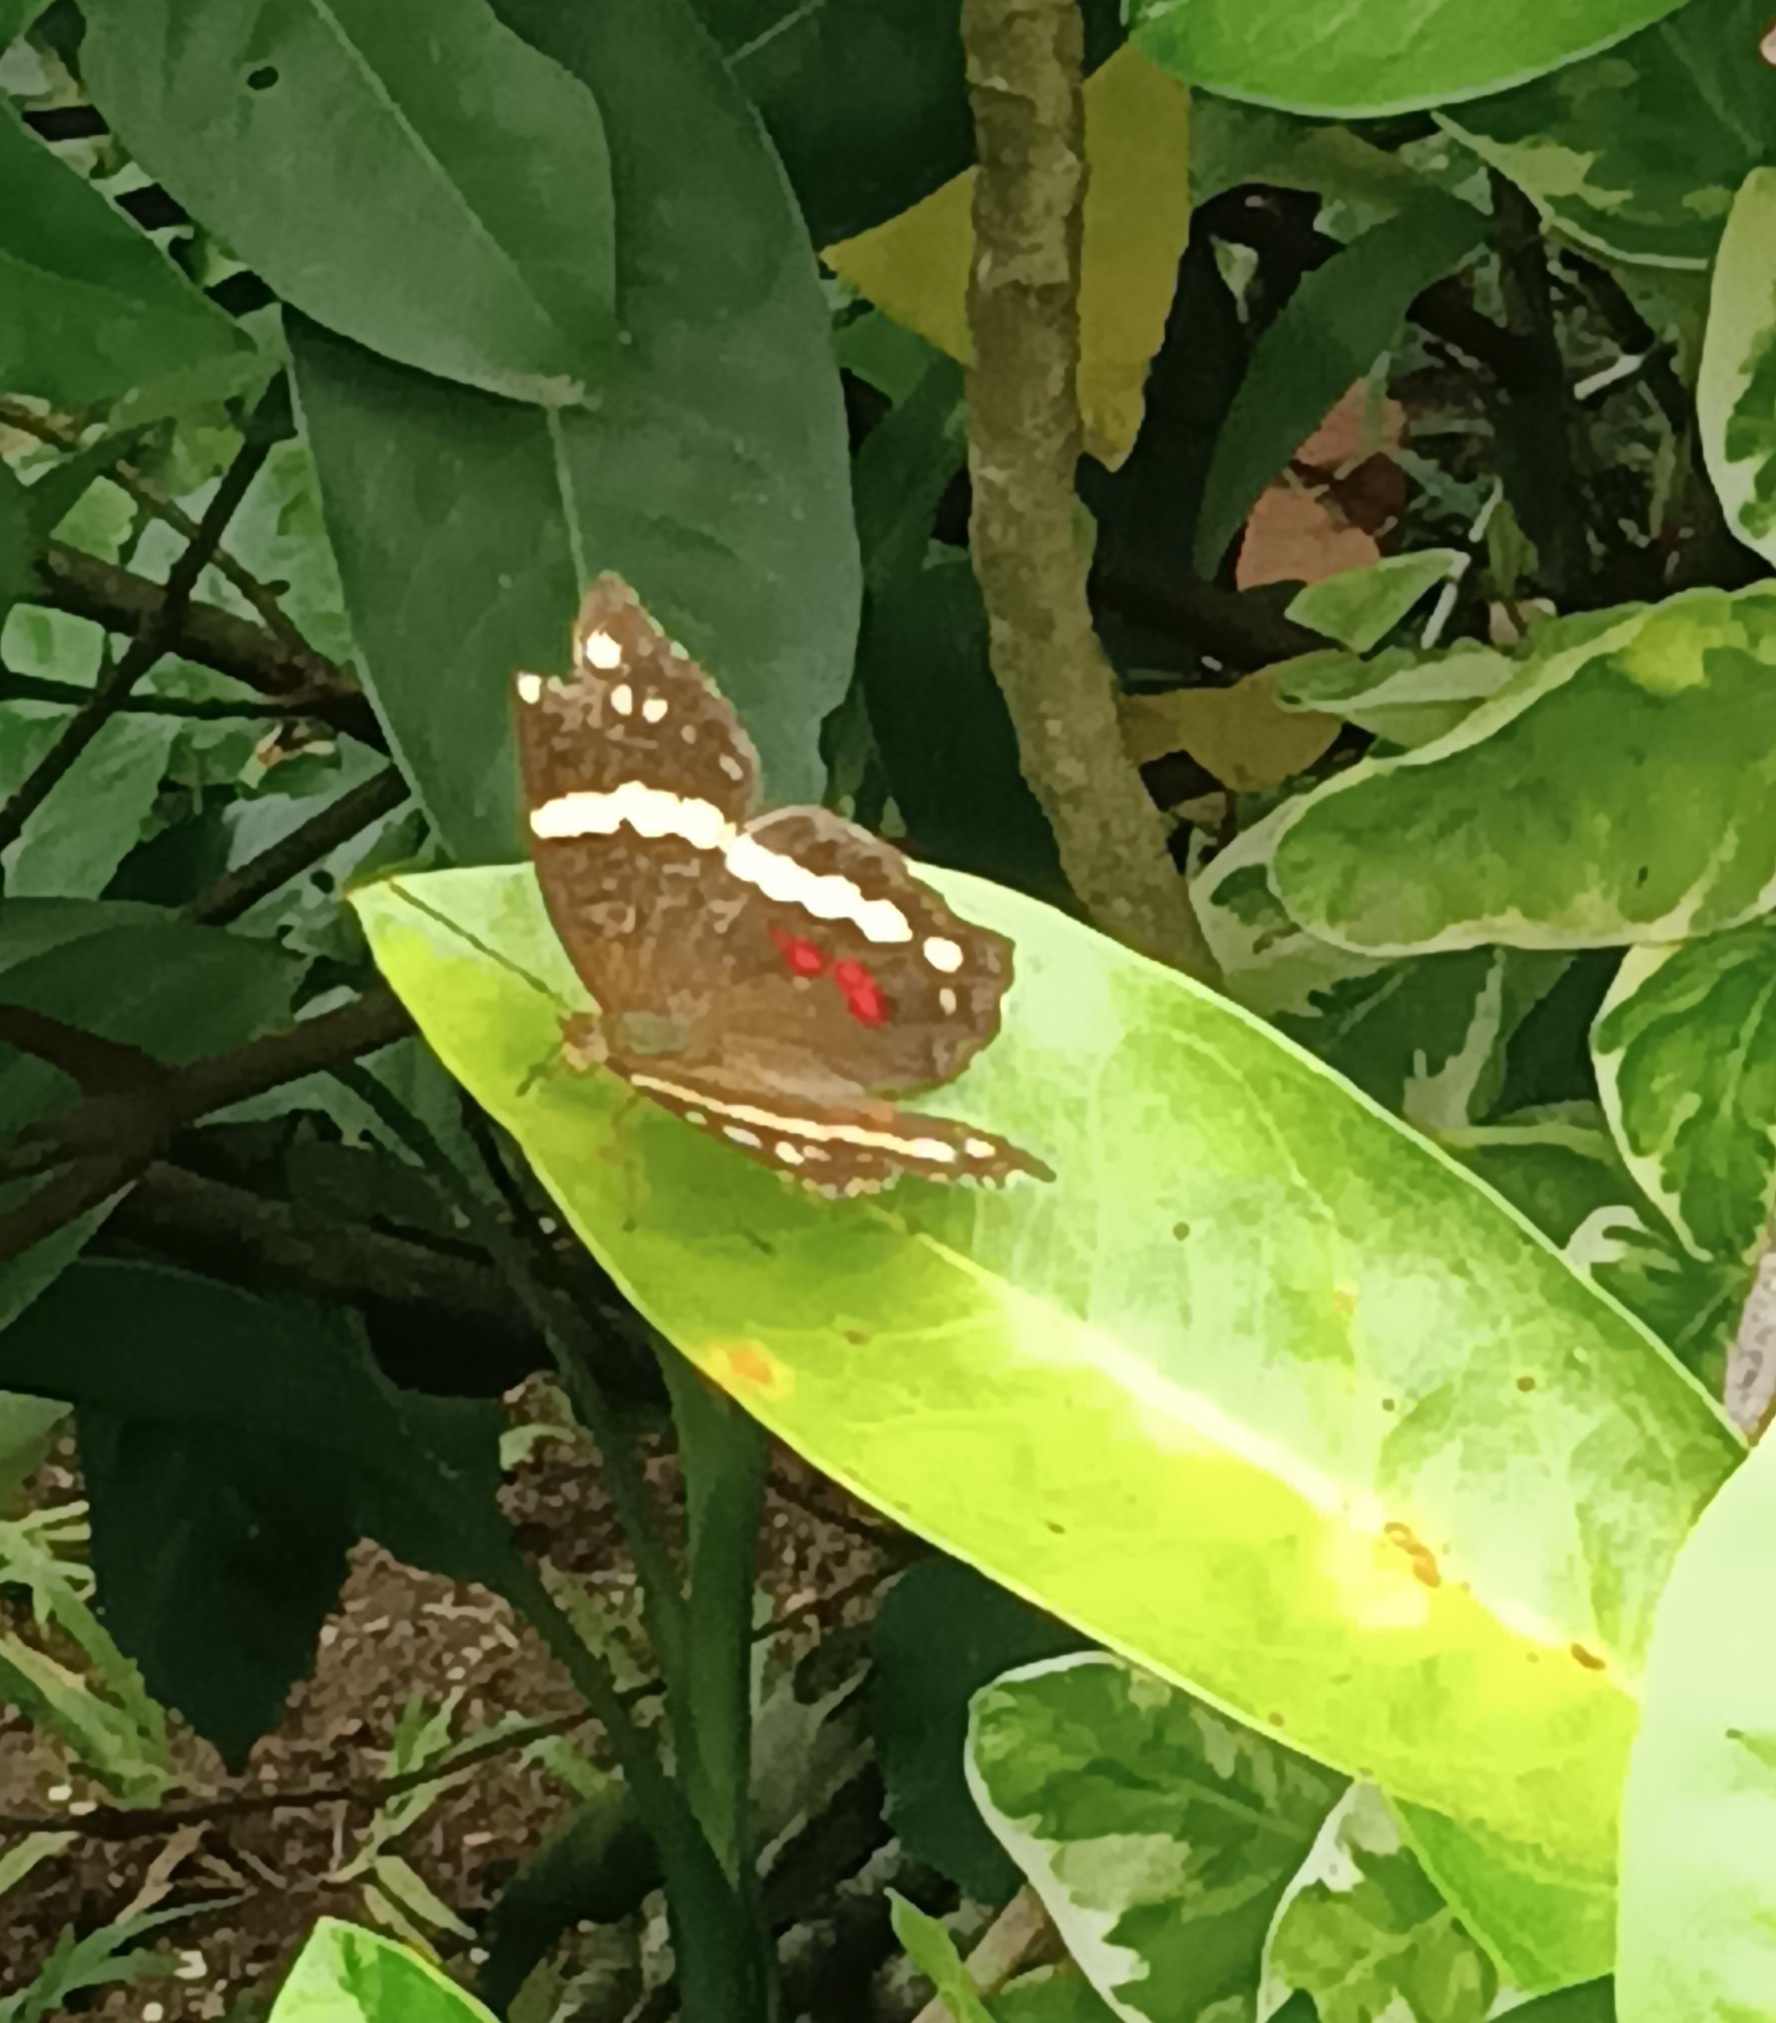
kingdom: Animalia
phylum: Arthropoda
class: Insecta
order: Lepidoptera
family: Nymphalidae
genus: Anartia
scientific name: Anartia fatima
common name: Banded peacock
